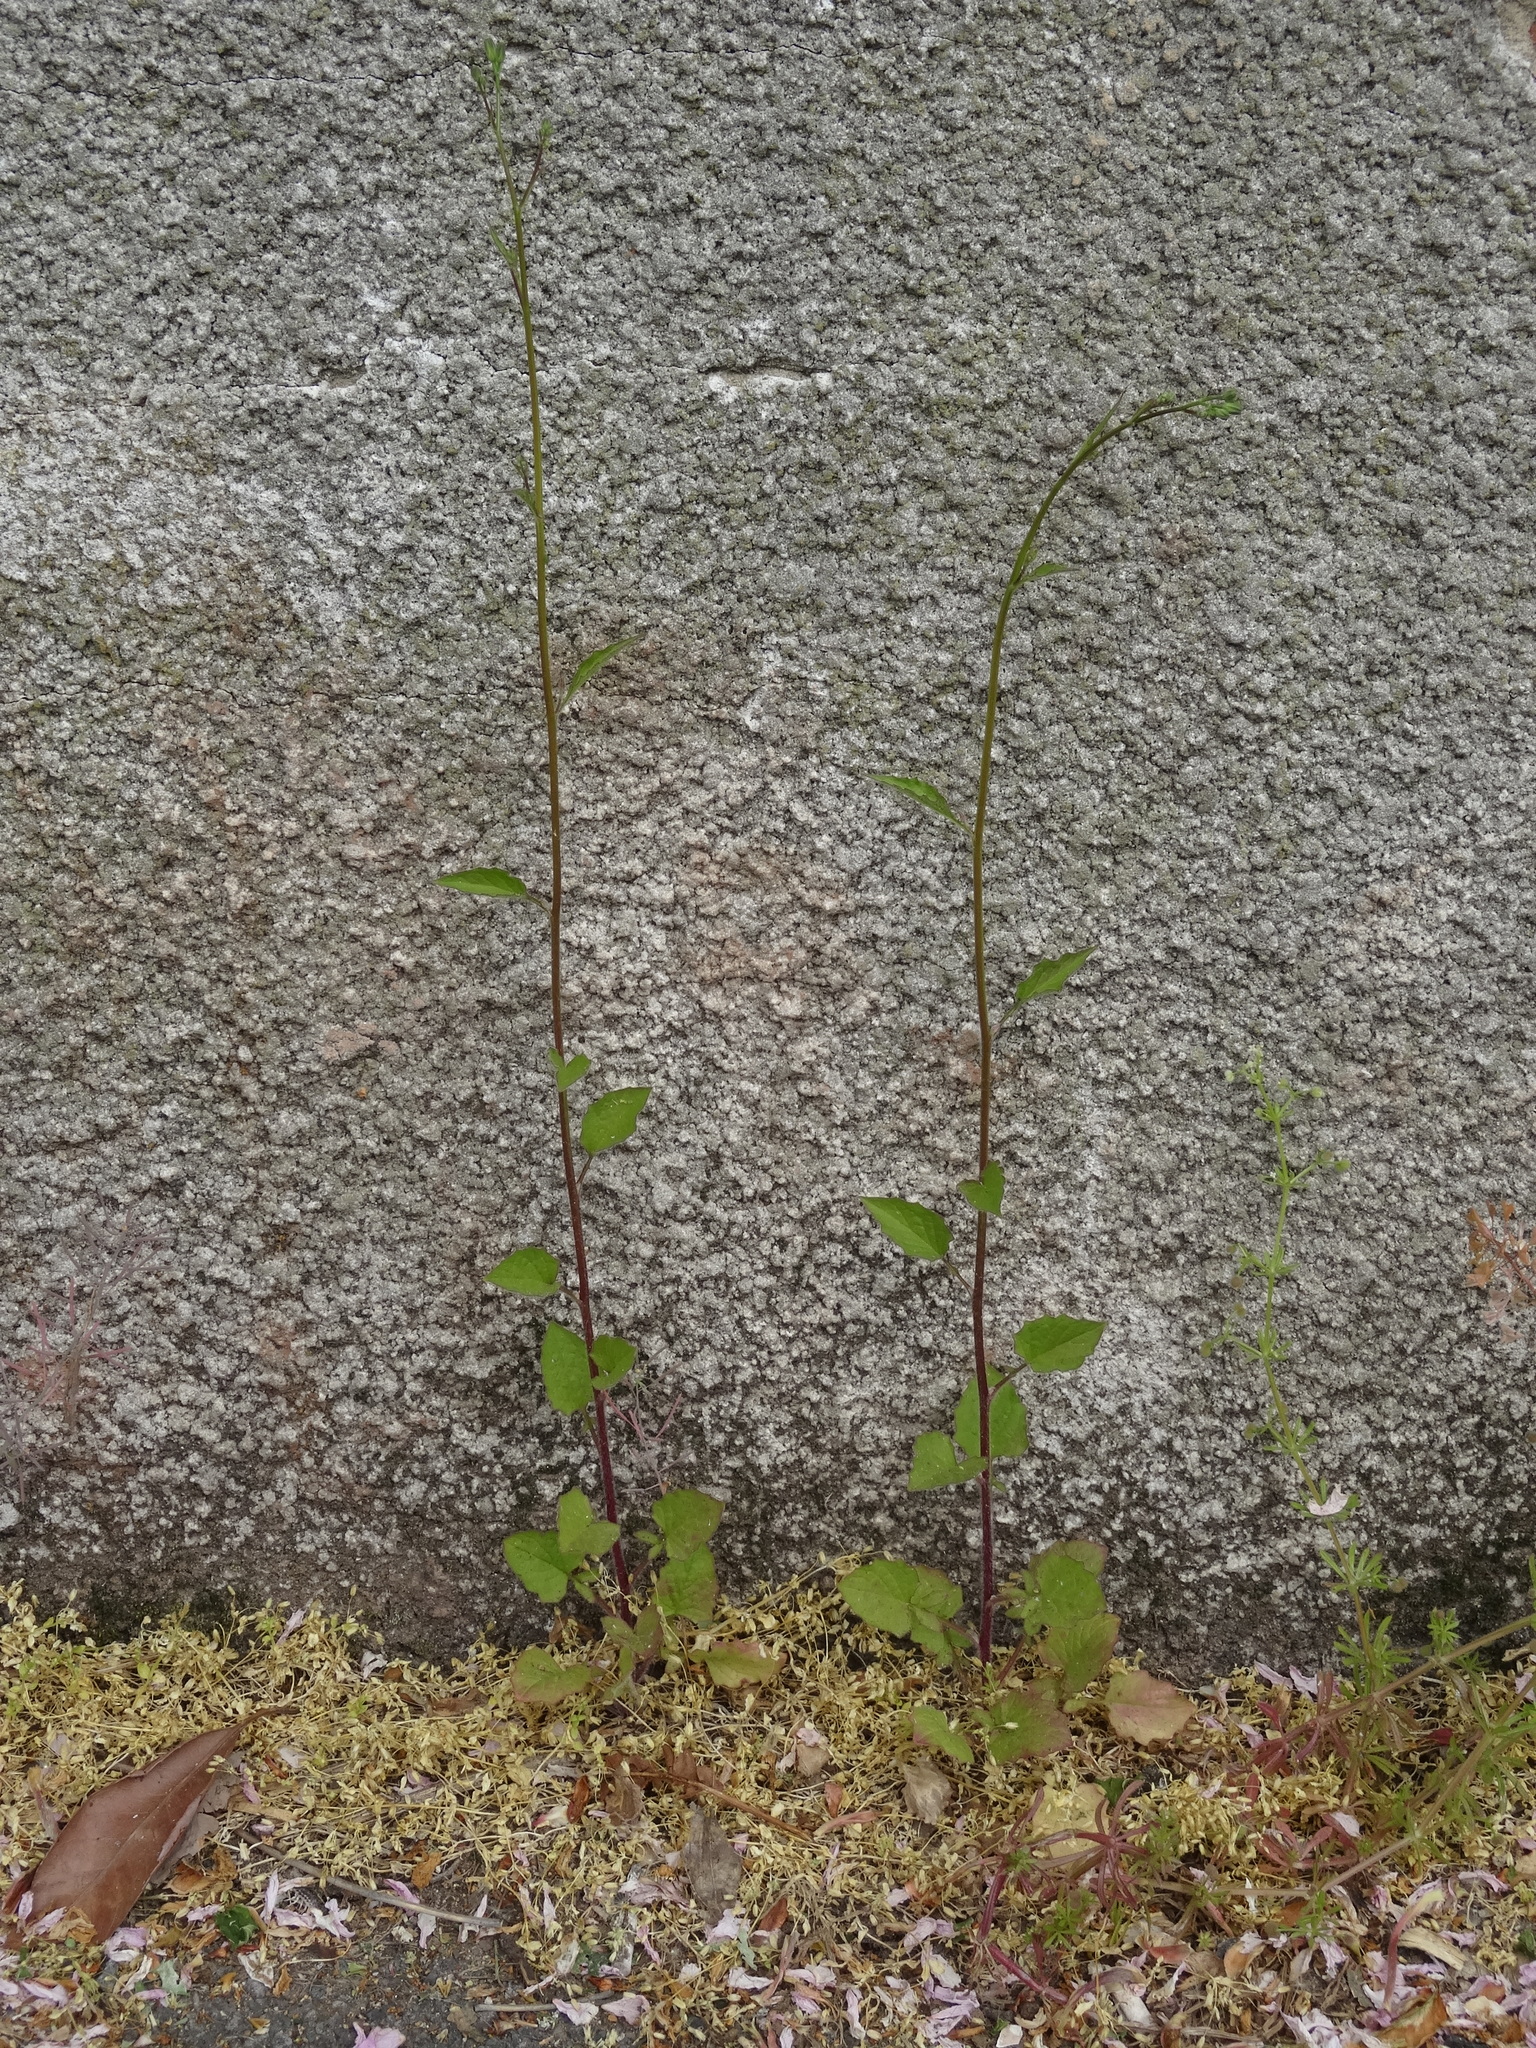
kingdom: Plantae
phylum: Tracheophyta
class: Magnoliopsida
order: Asterales
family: Asteraceae
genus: Lapsana
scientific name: Lapsana communis
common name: Nipplewort
